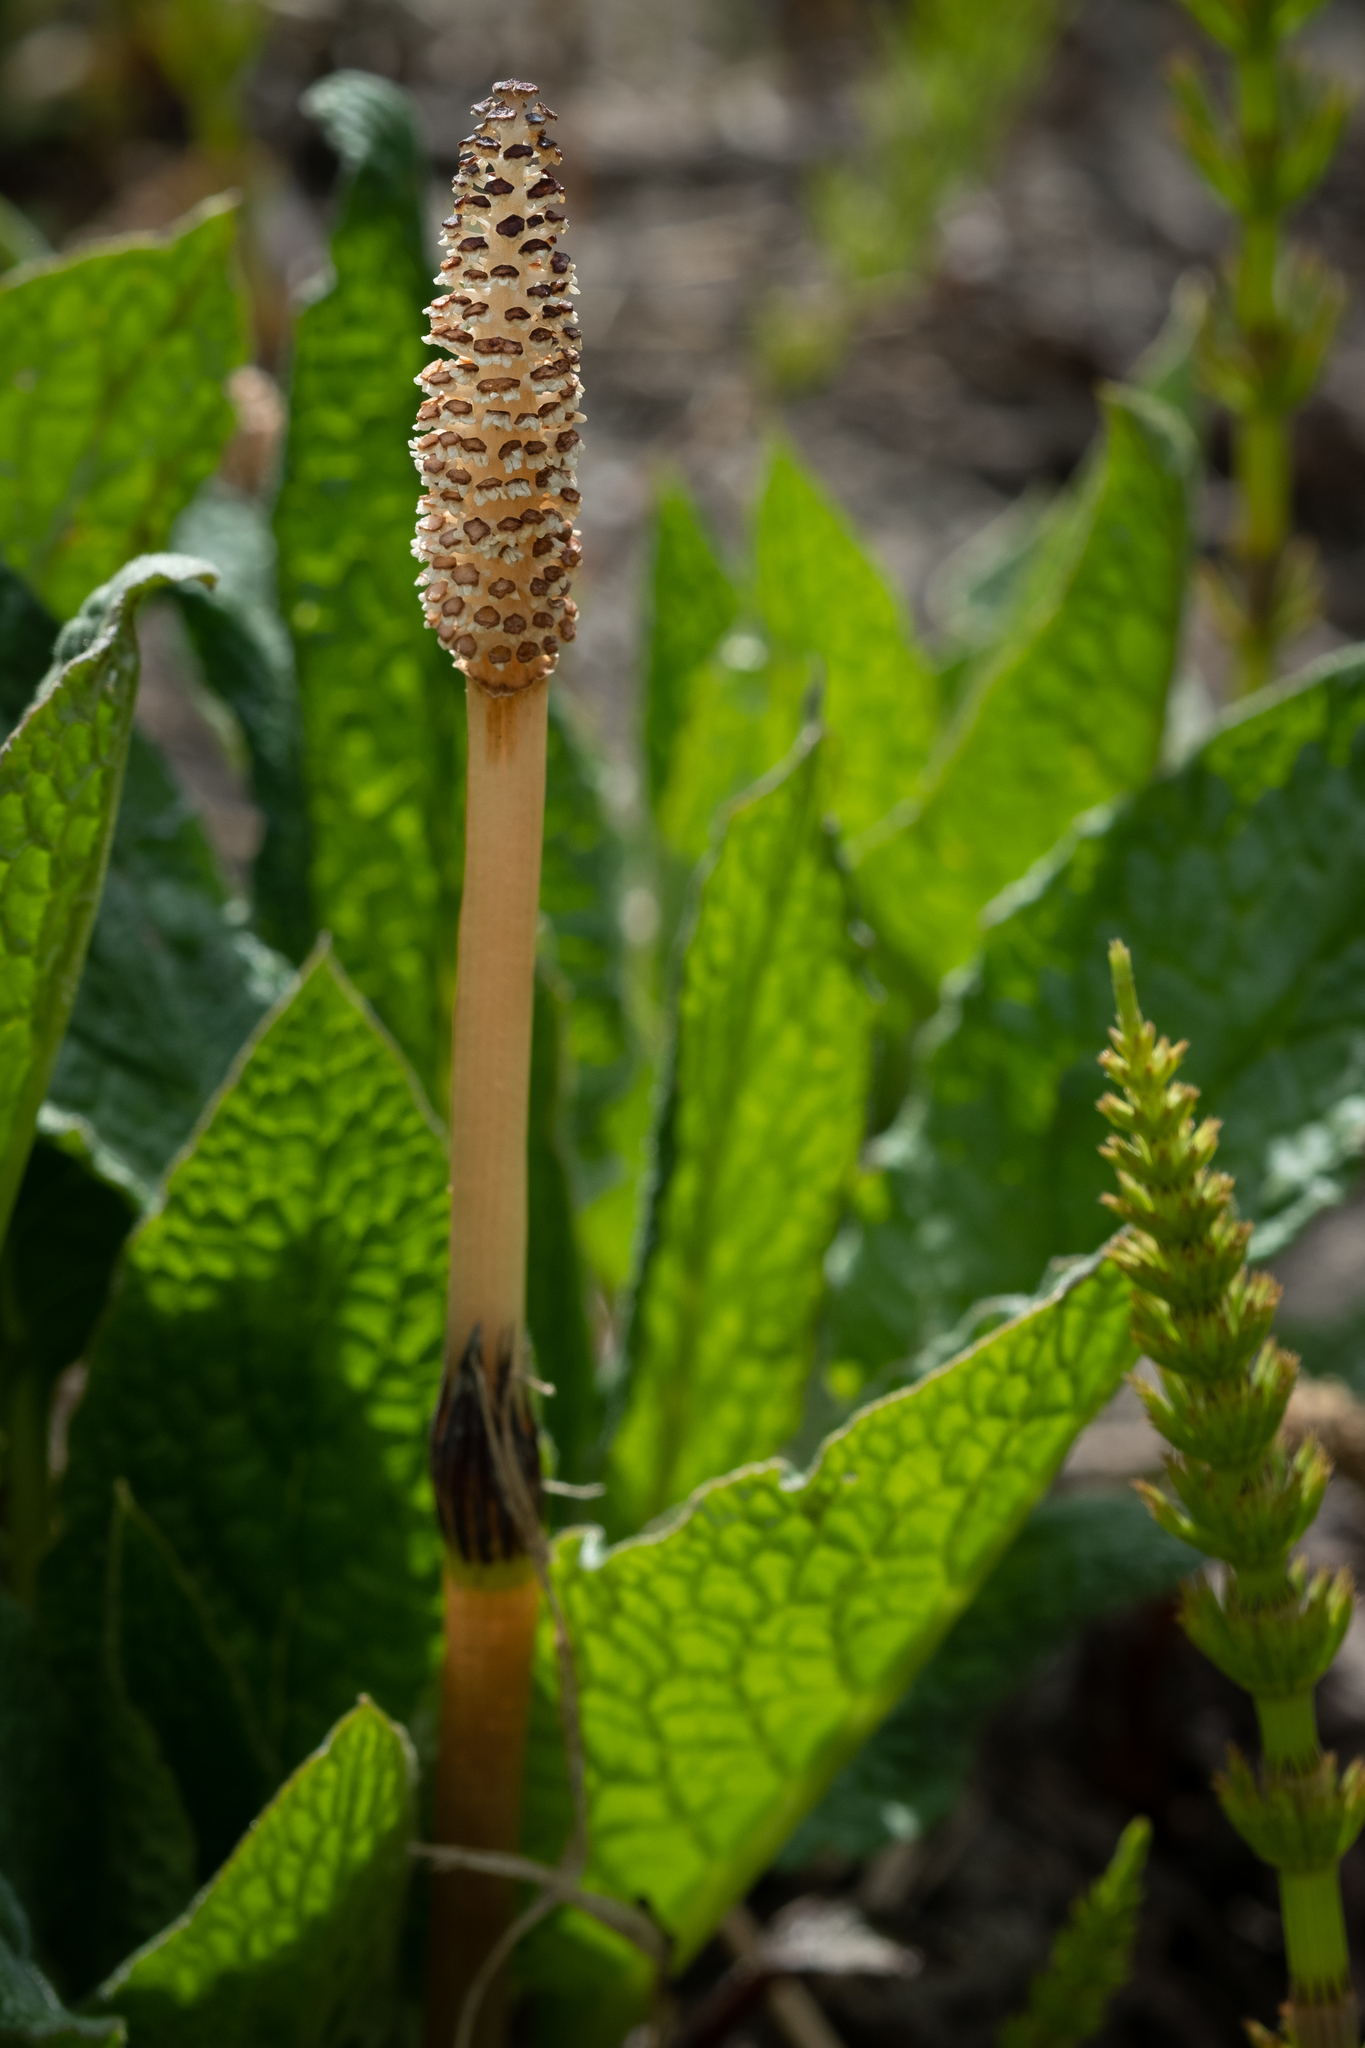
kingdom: Plantae
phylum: Tracheophyta
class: Polypodiopsida
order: Equisetales
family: Equisetaceae
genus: Equisetum
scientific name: Equisetum arvense
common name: Field horsetail
